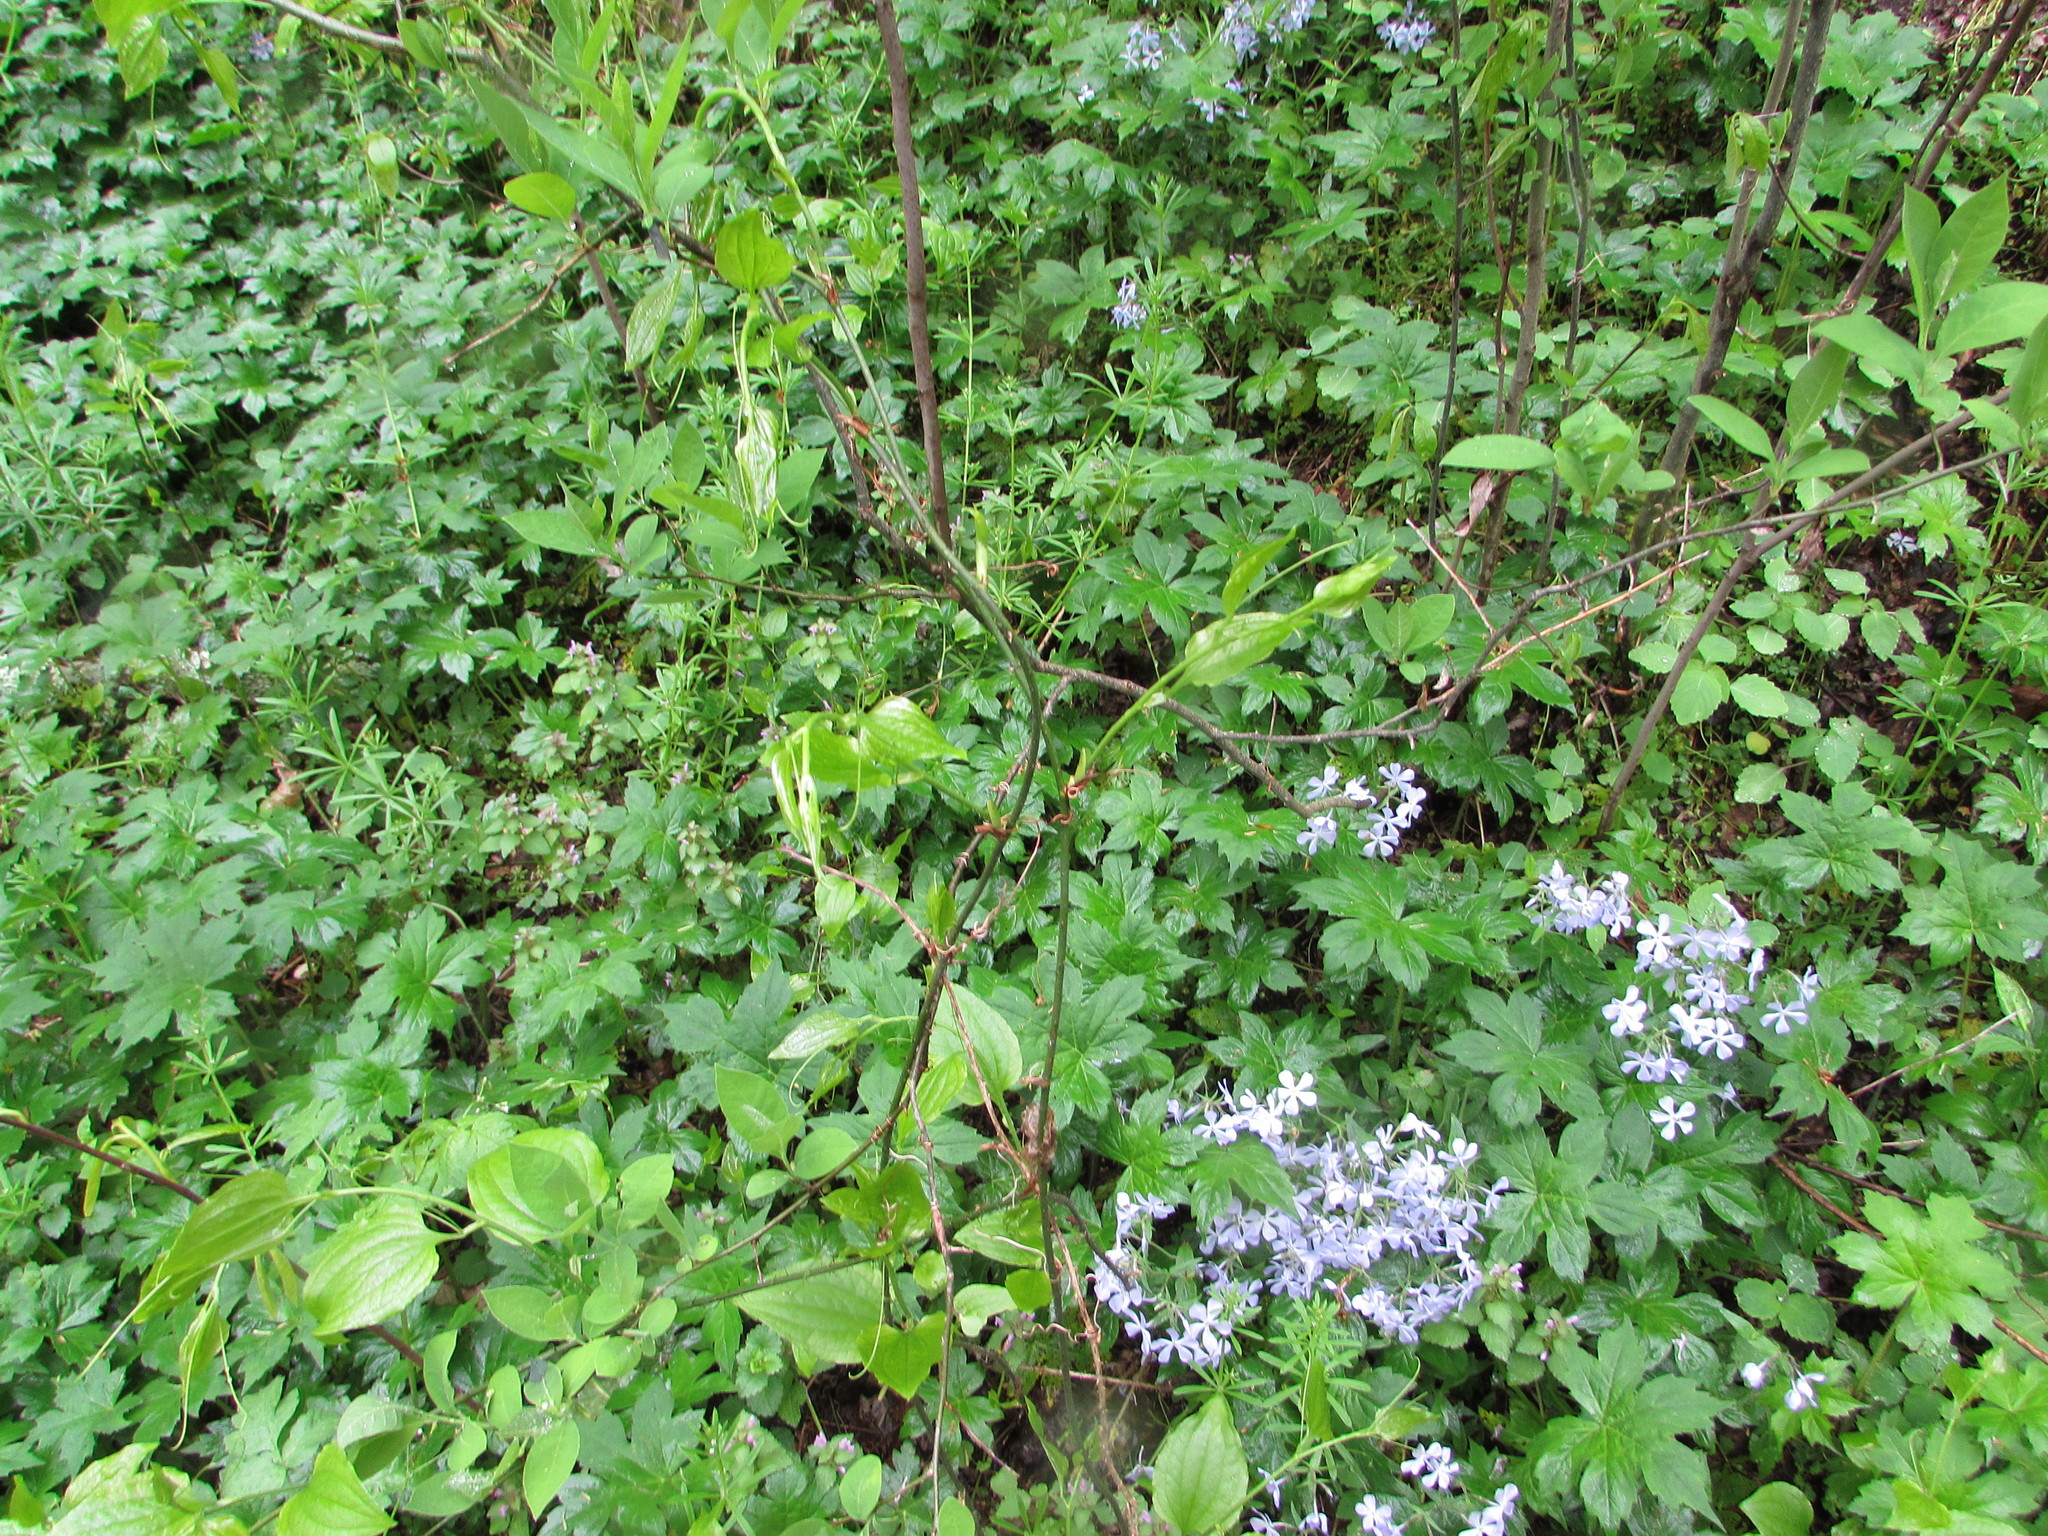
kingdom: Plantae
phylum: Tracheophyta
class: Liliopsida
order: Liliales
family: Smilacaceae
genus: Smilax
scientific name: Smilax tamnoides
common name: Hellfetter
